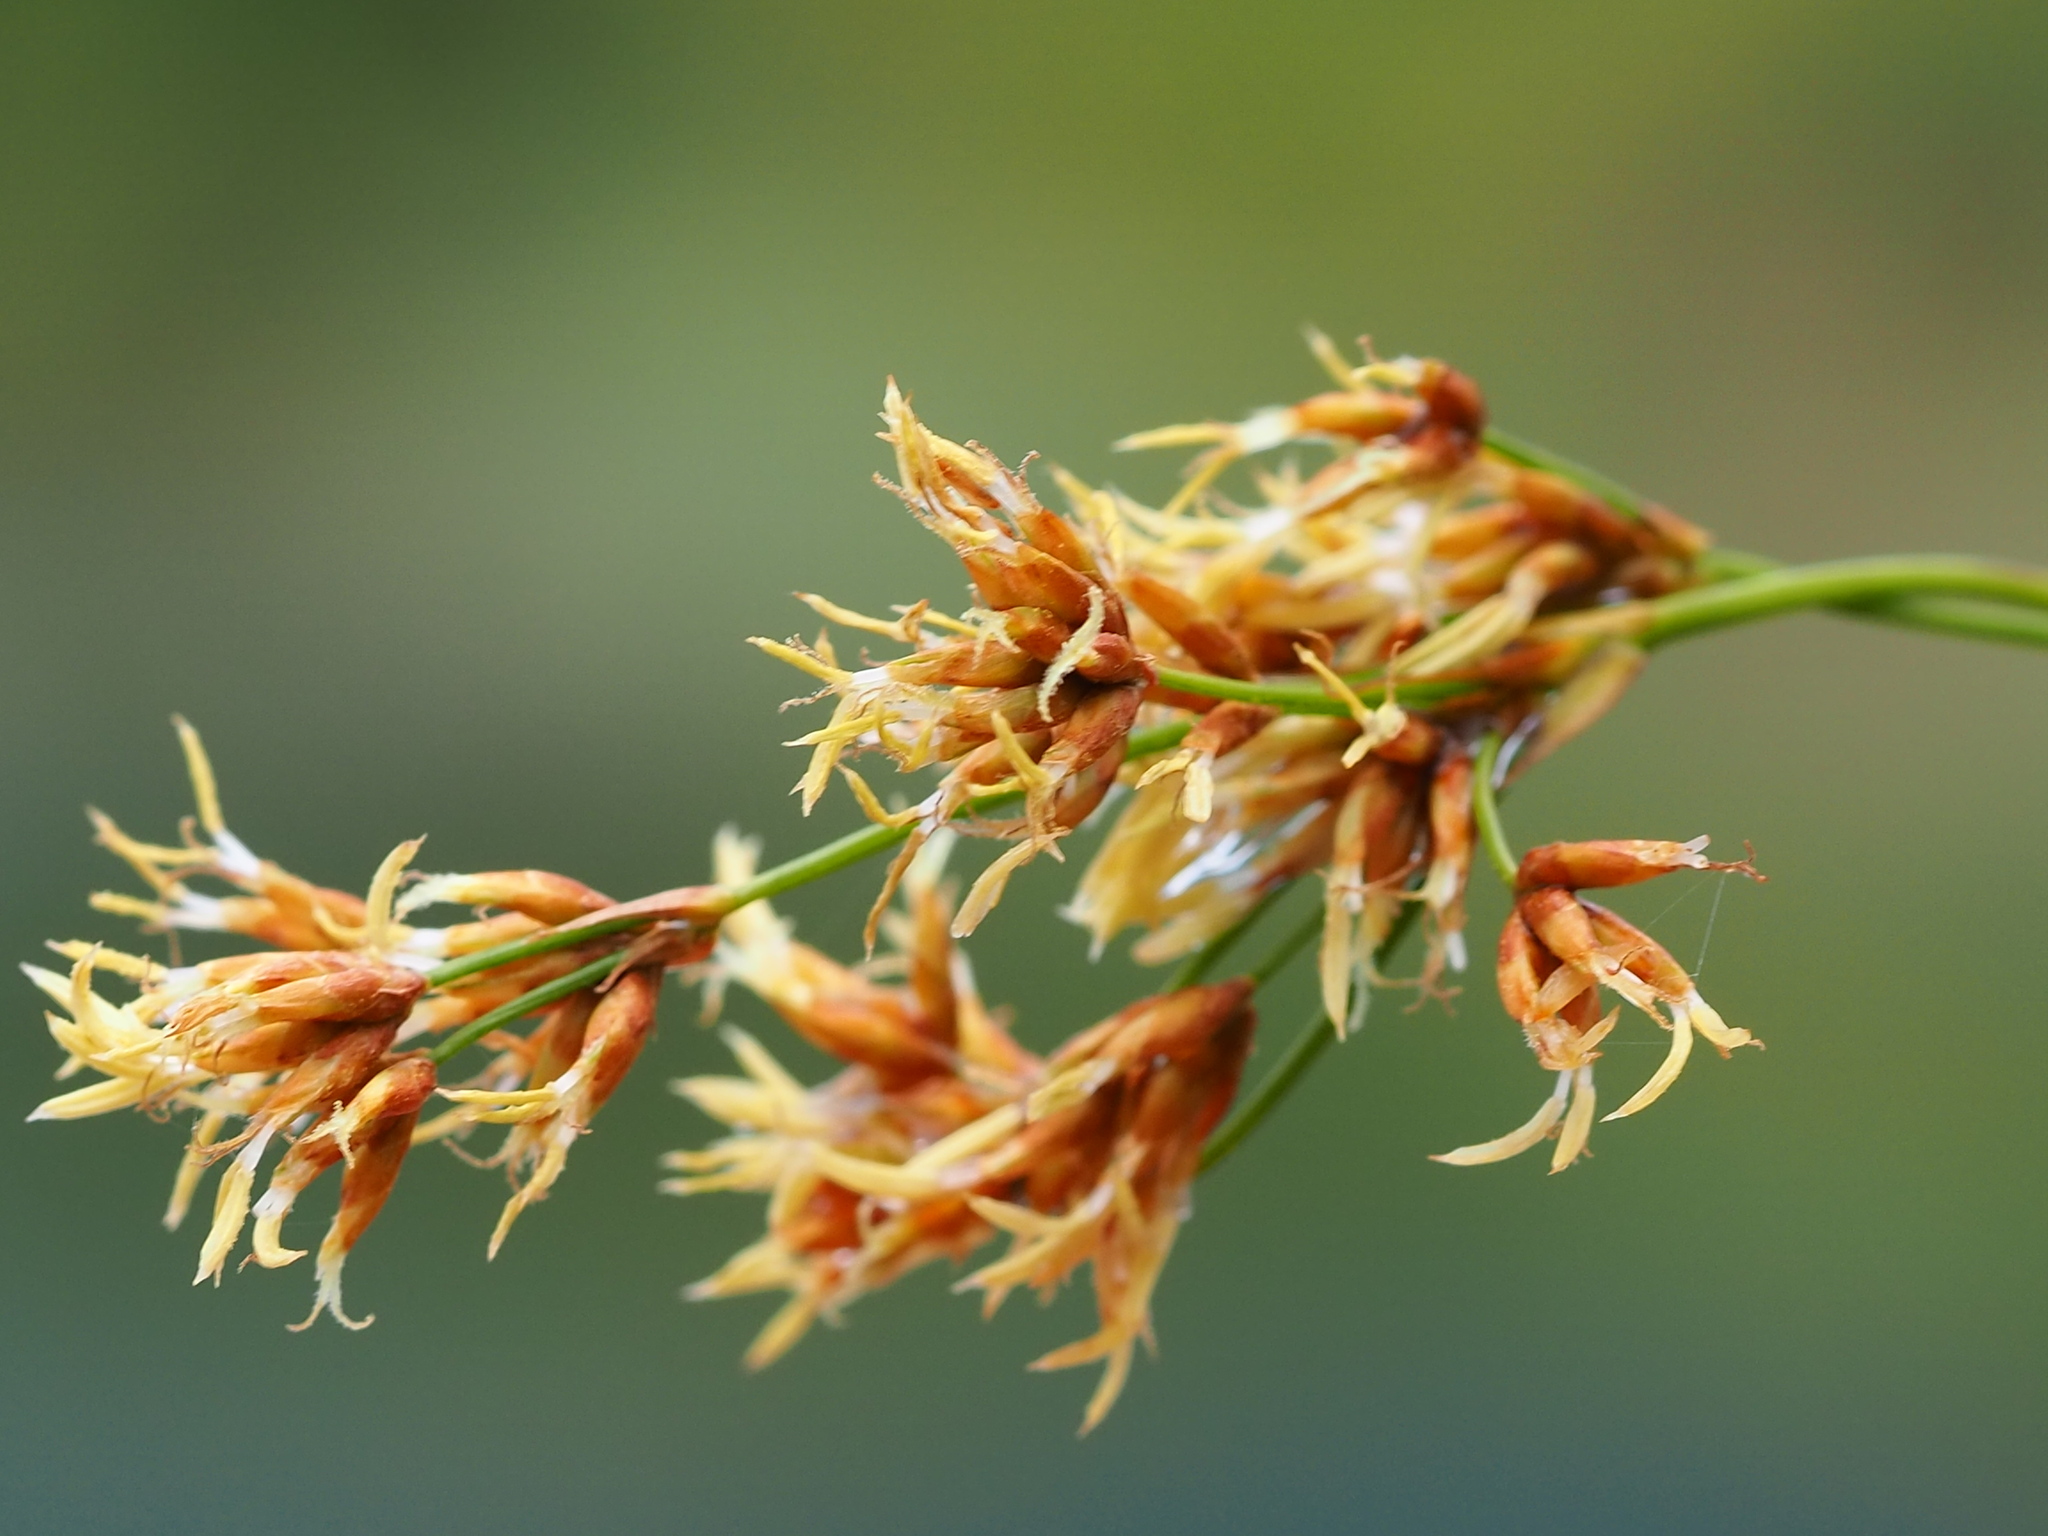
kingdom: Plantae
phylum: Tracheophyta
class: Liliopsida
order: Poales
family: Cyperaceae
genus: Cladium
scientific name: Cladium mariscus
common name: Great fen-sedge
